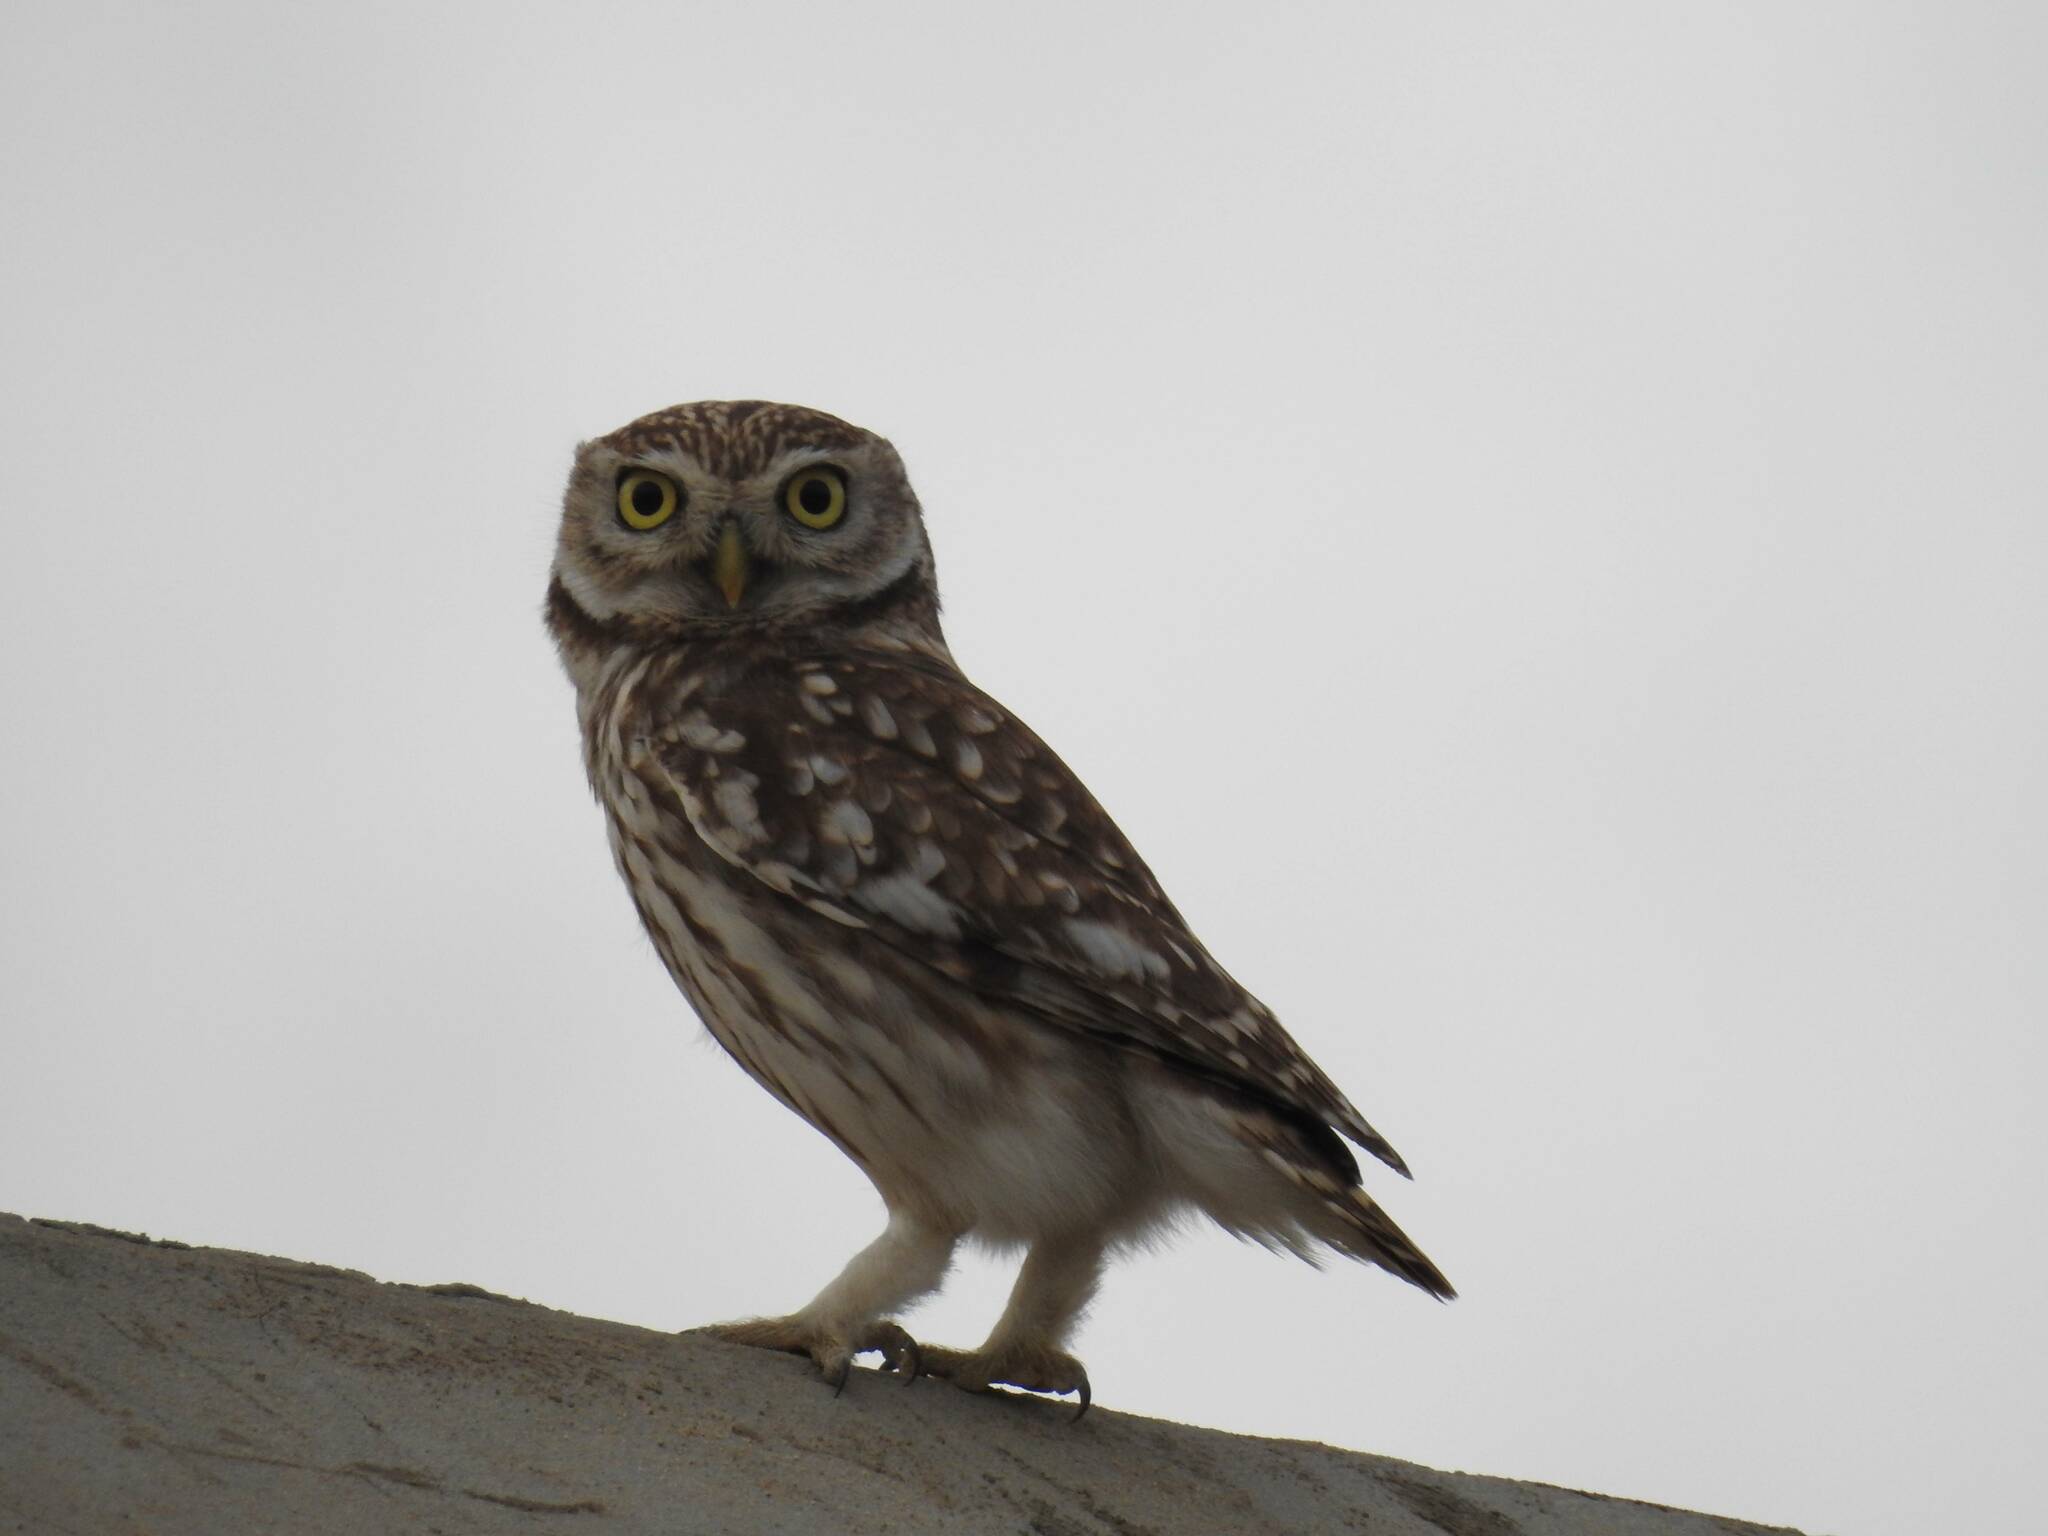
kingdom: Animalia
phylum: Chordata
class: Aves
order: Strigiformes
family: Strigidae
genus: Athene
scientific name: Athene noctua
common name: Little owl
